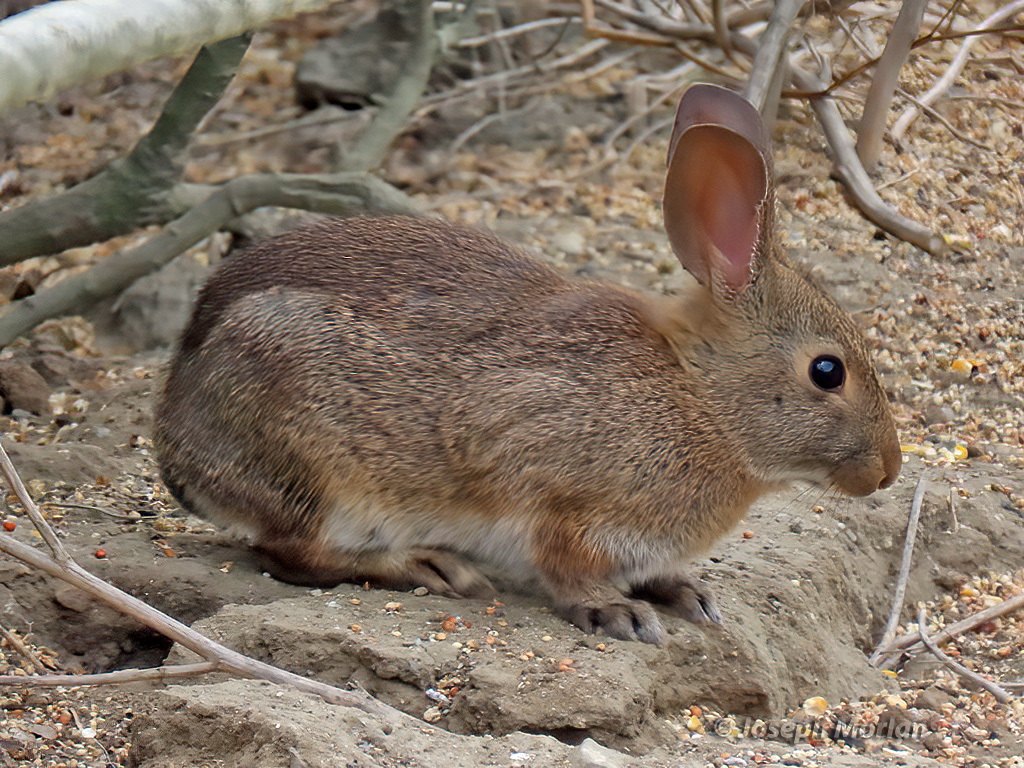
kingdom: Animalia
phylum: Chordata
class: Mammalia
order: Lagomorpha
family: Leporidae
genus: Sylvilagus
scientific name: Sylvilagus bachmani
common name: Brush rabbit
